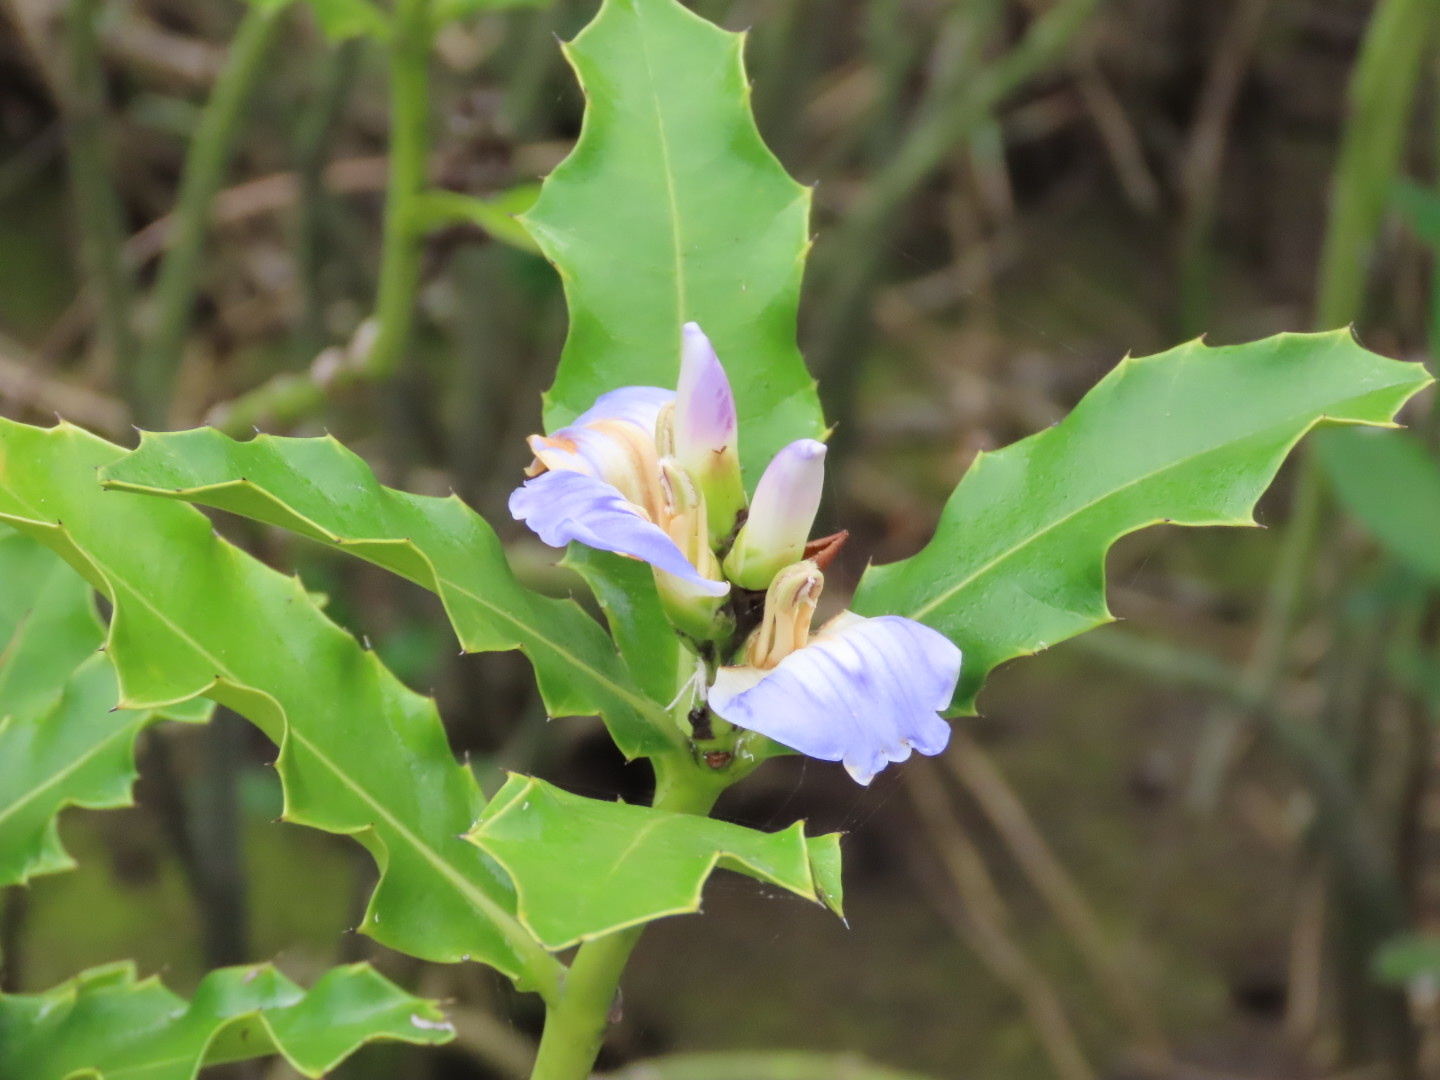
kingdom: Plantae
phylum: Tracheophyta
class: Magnoliopsida
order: Lamiales
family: Acanthaceae
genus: Acanthus
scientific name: Acanthus ilicifolius
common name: Holy mangrove
